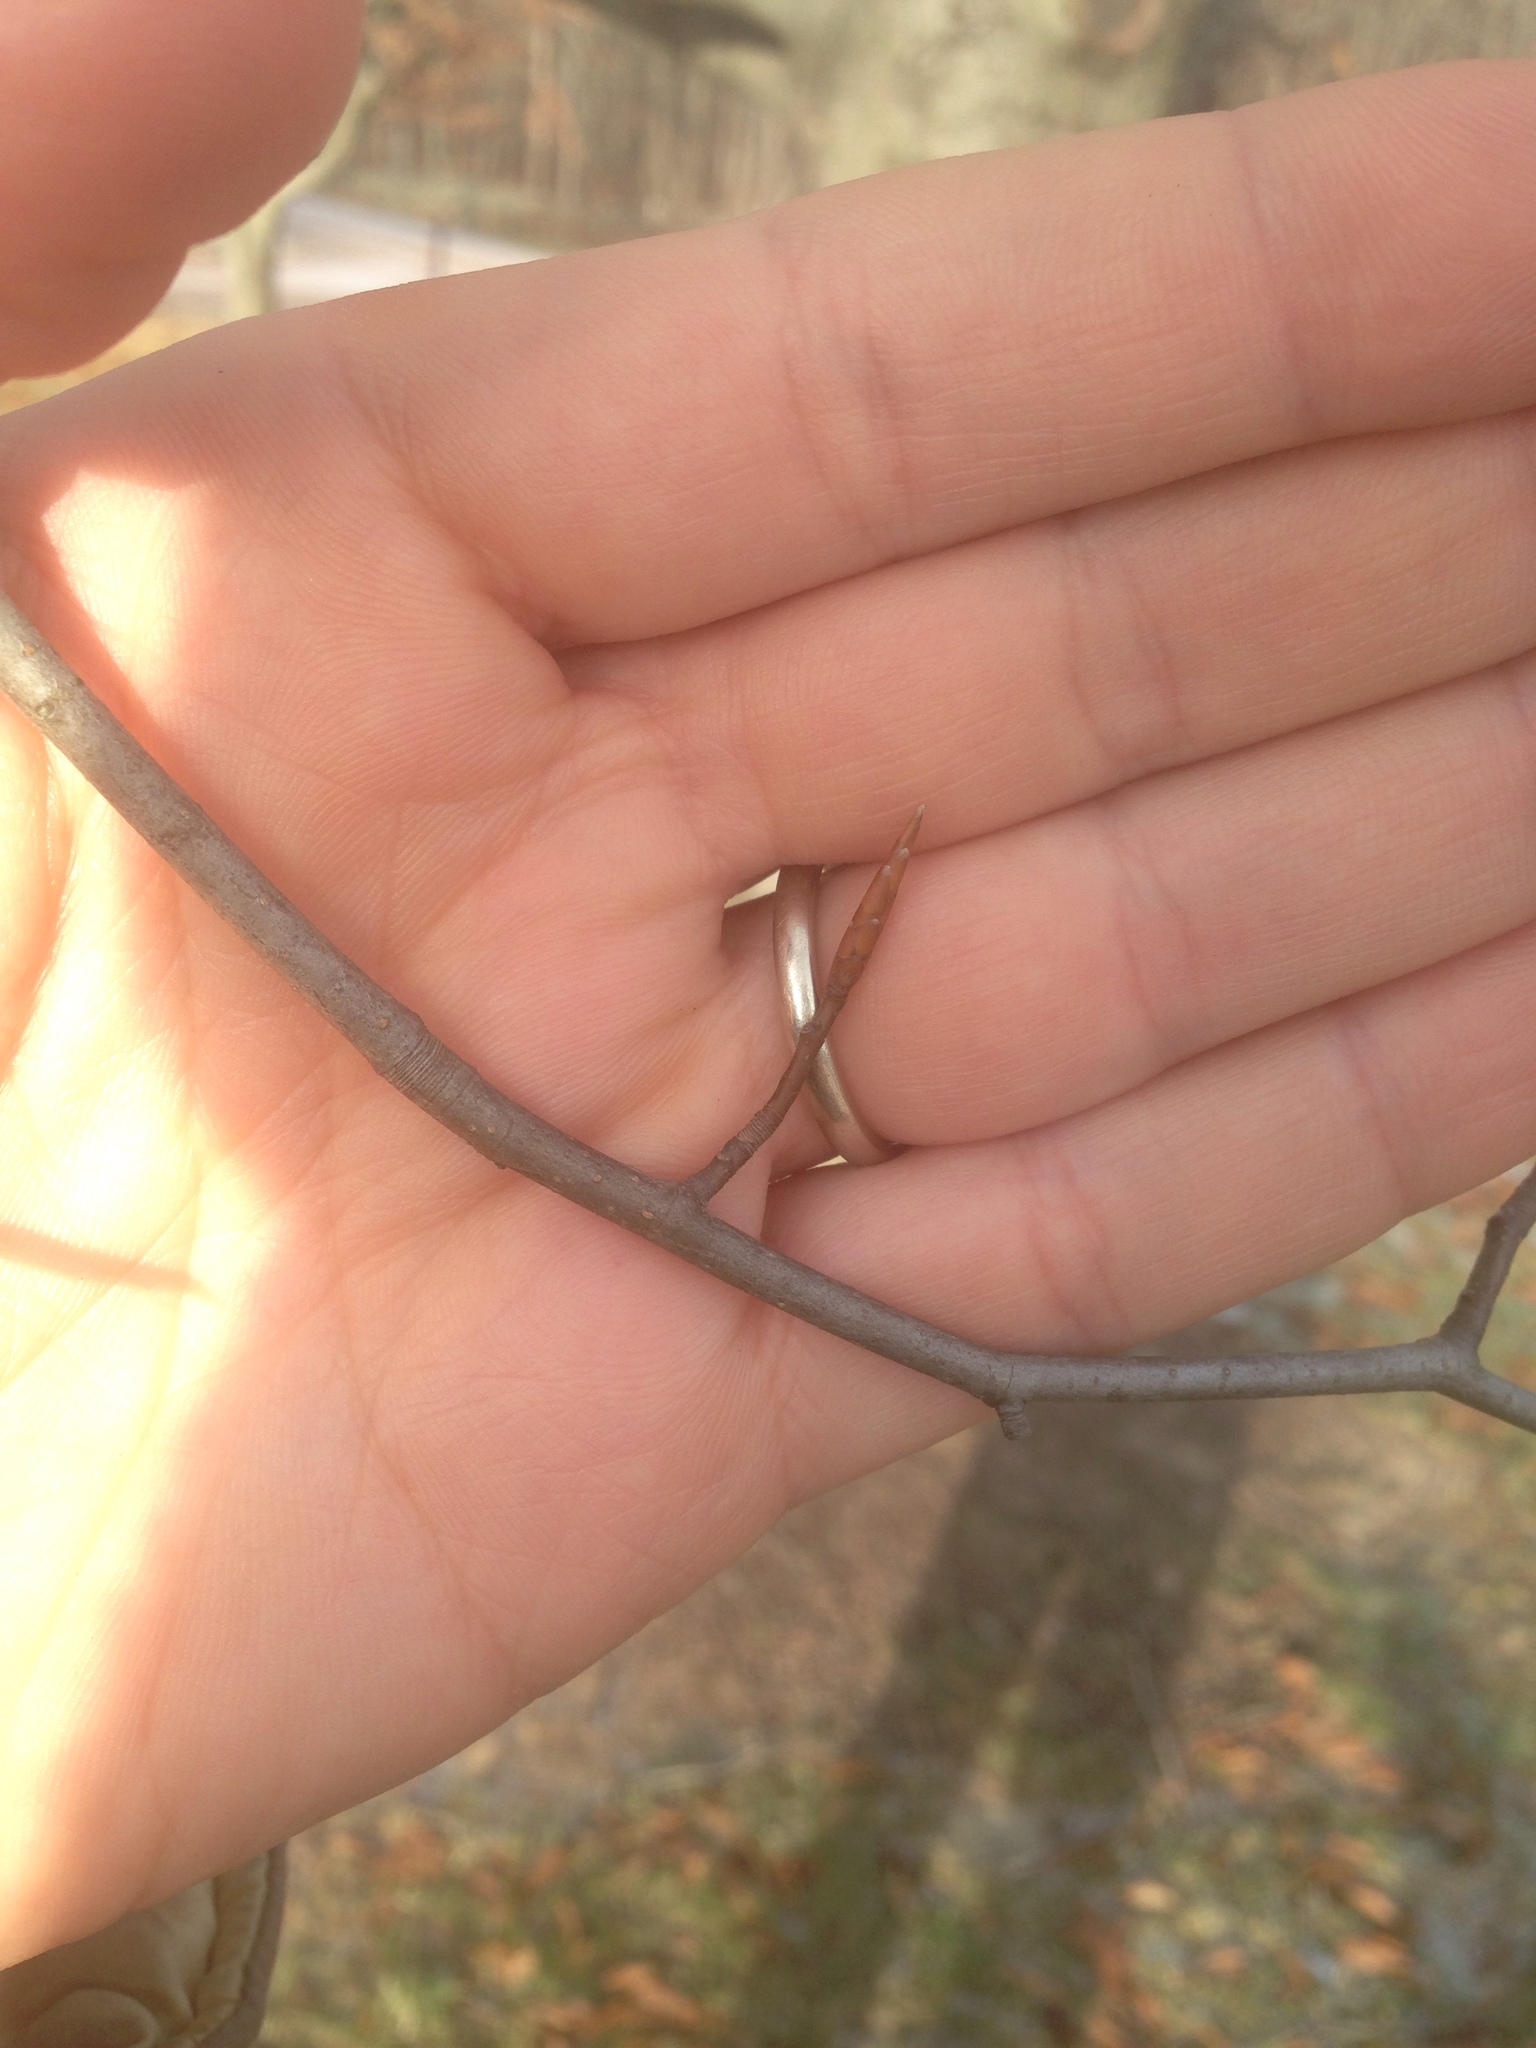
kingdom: Plantae
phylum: Tracheophyta
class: Magnoliopsida
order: Fagales
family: Fagaceae
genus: Fagus
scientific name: Fagus grandifolia
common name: American beech
